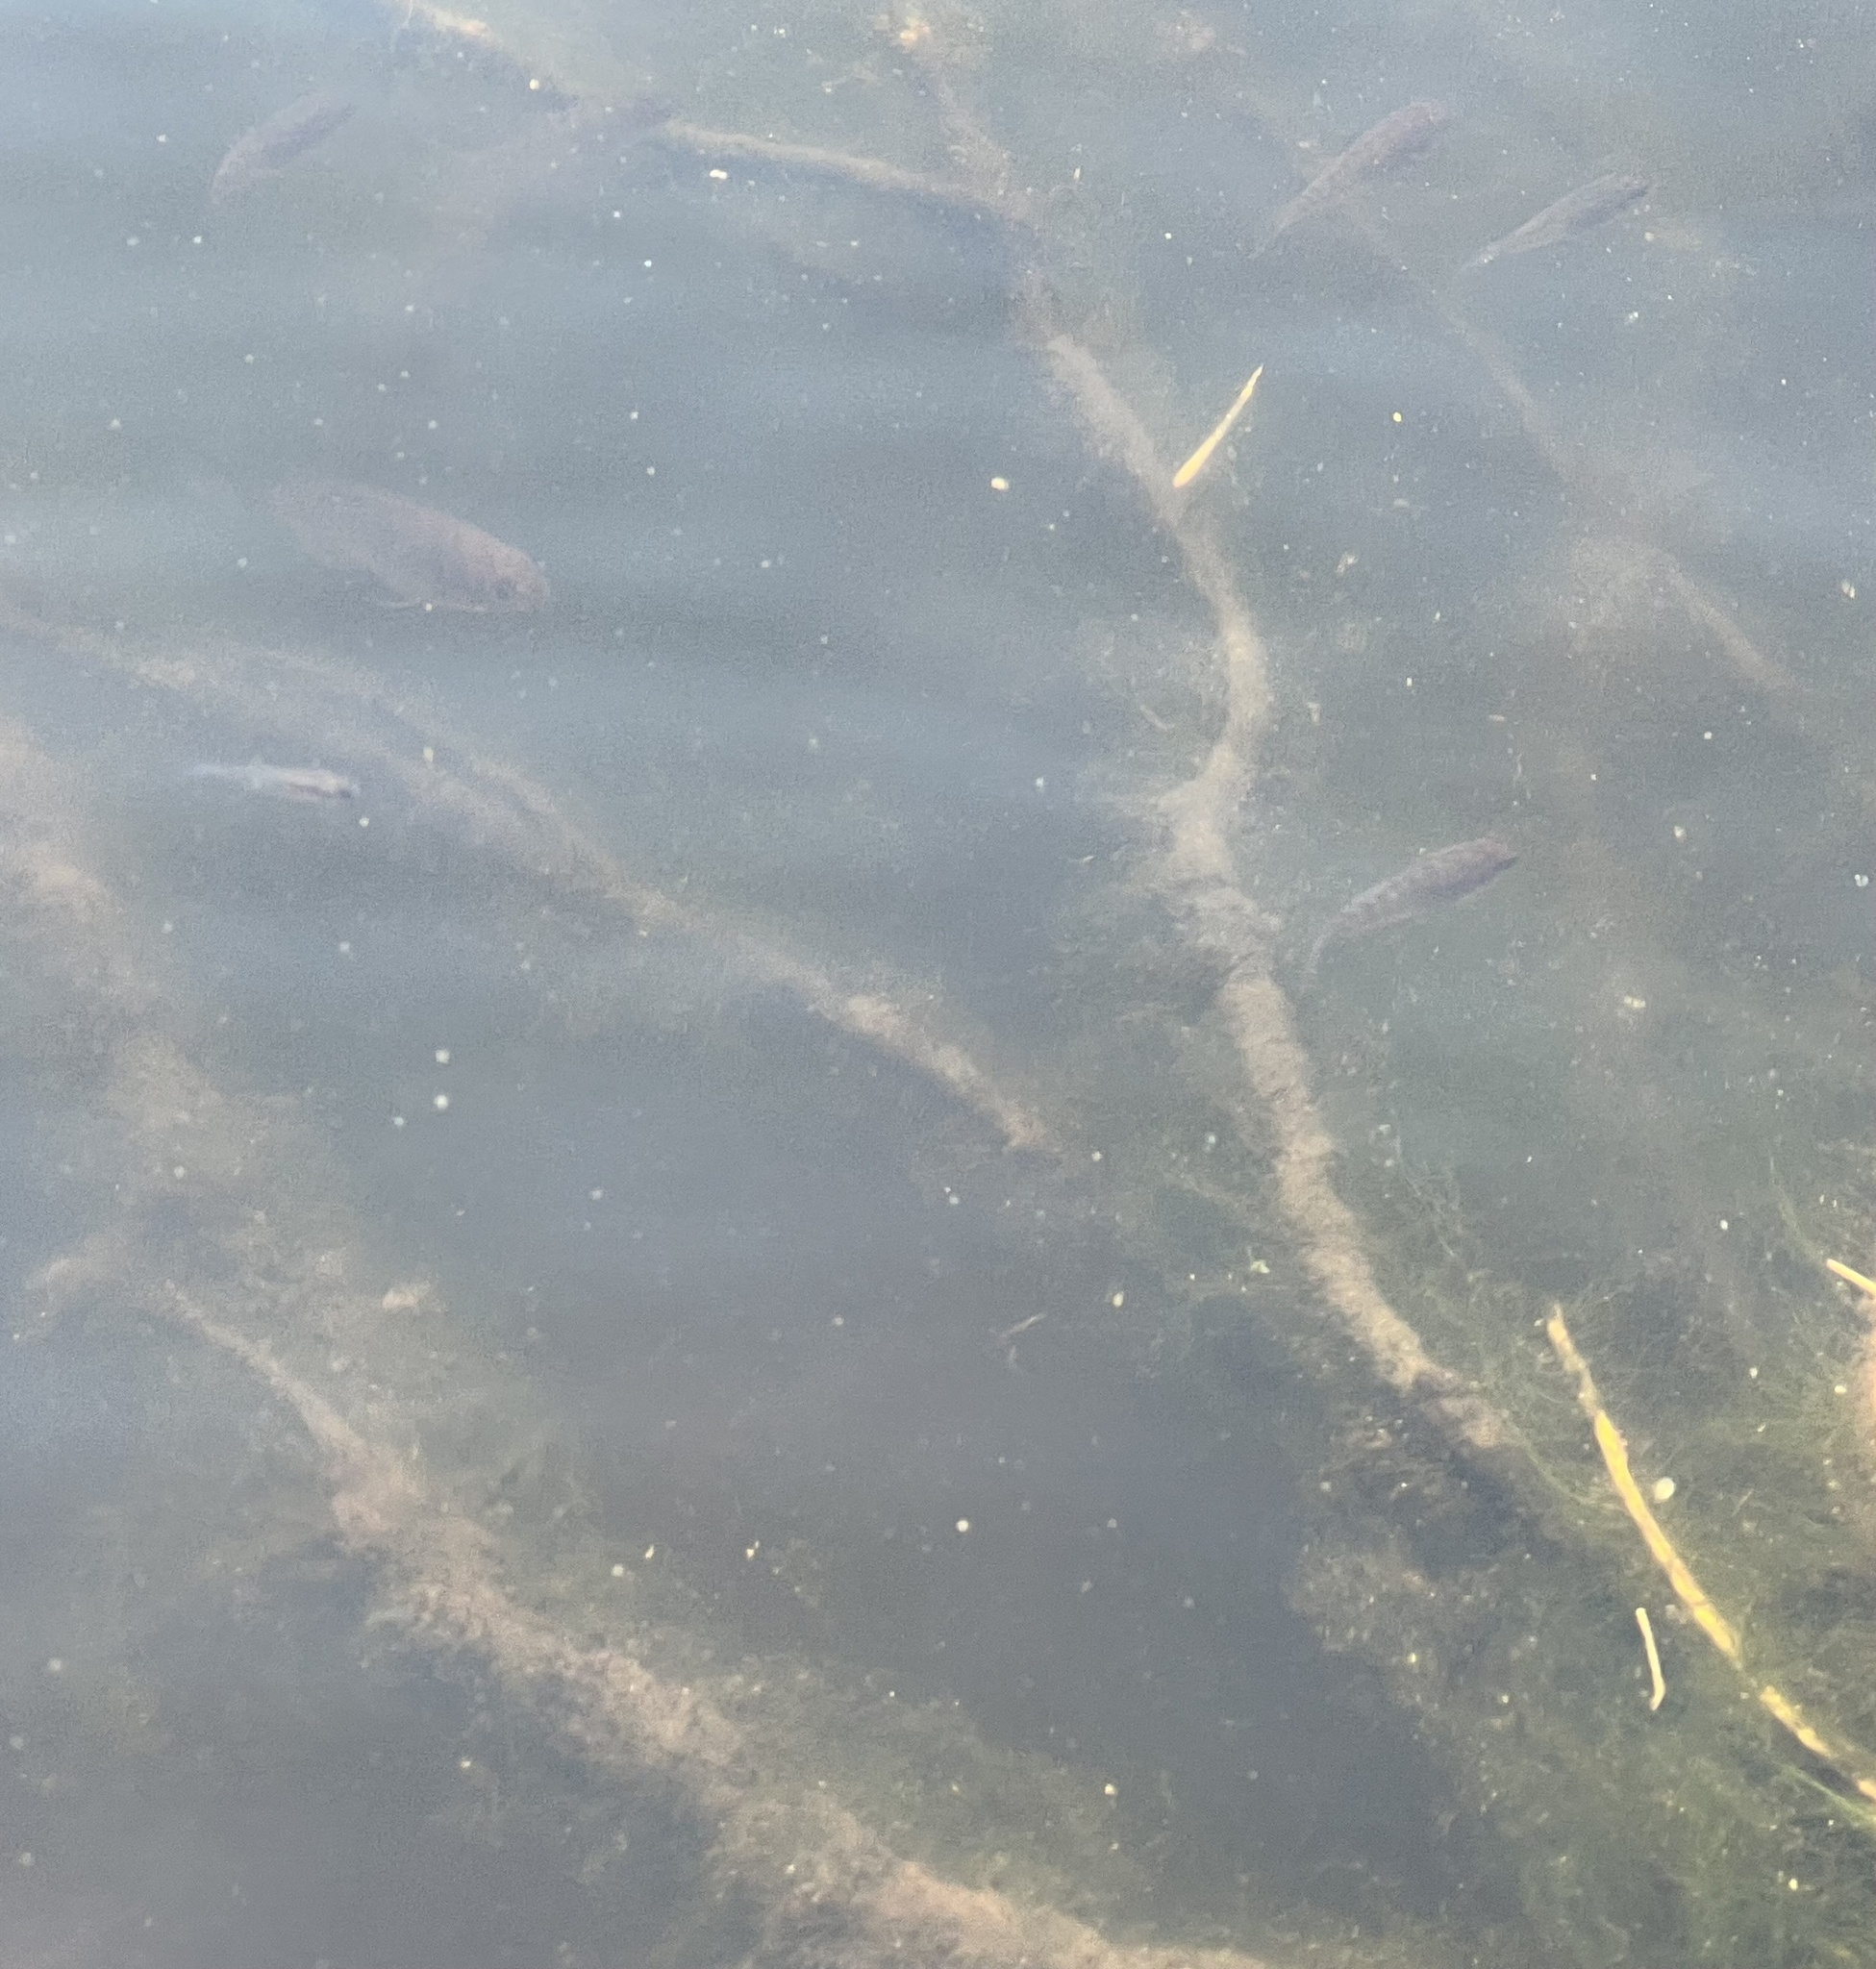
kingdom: Animalia
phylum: Chordata
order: Perciformes
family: Centrarchidae
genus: Lepomis
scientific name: Lepomis gibbosus
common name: Pumpkinseed
